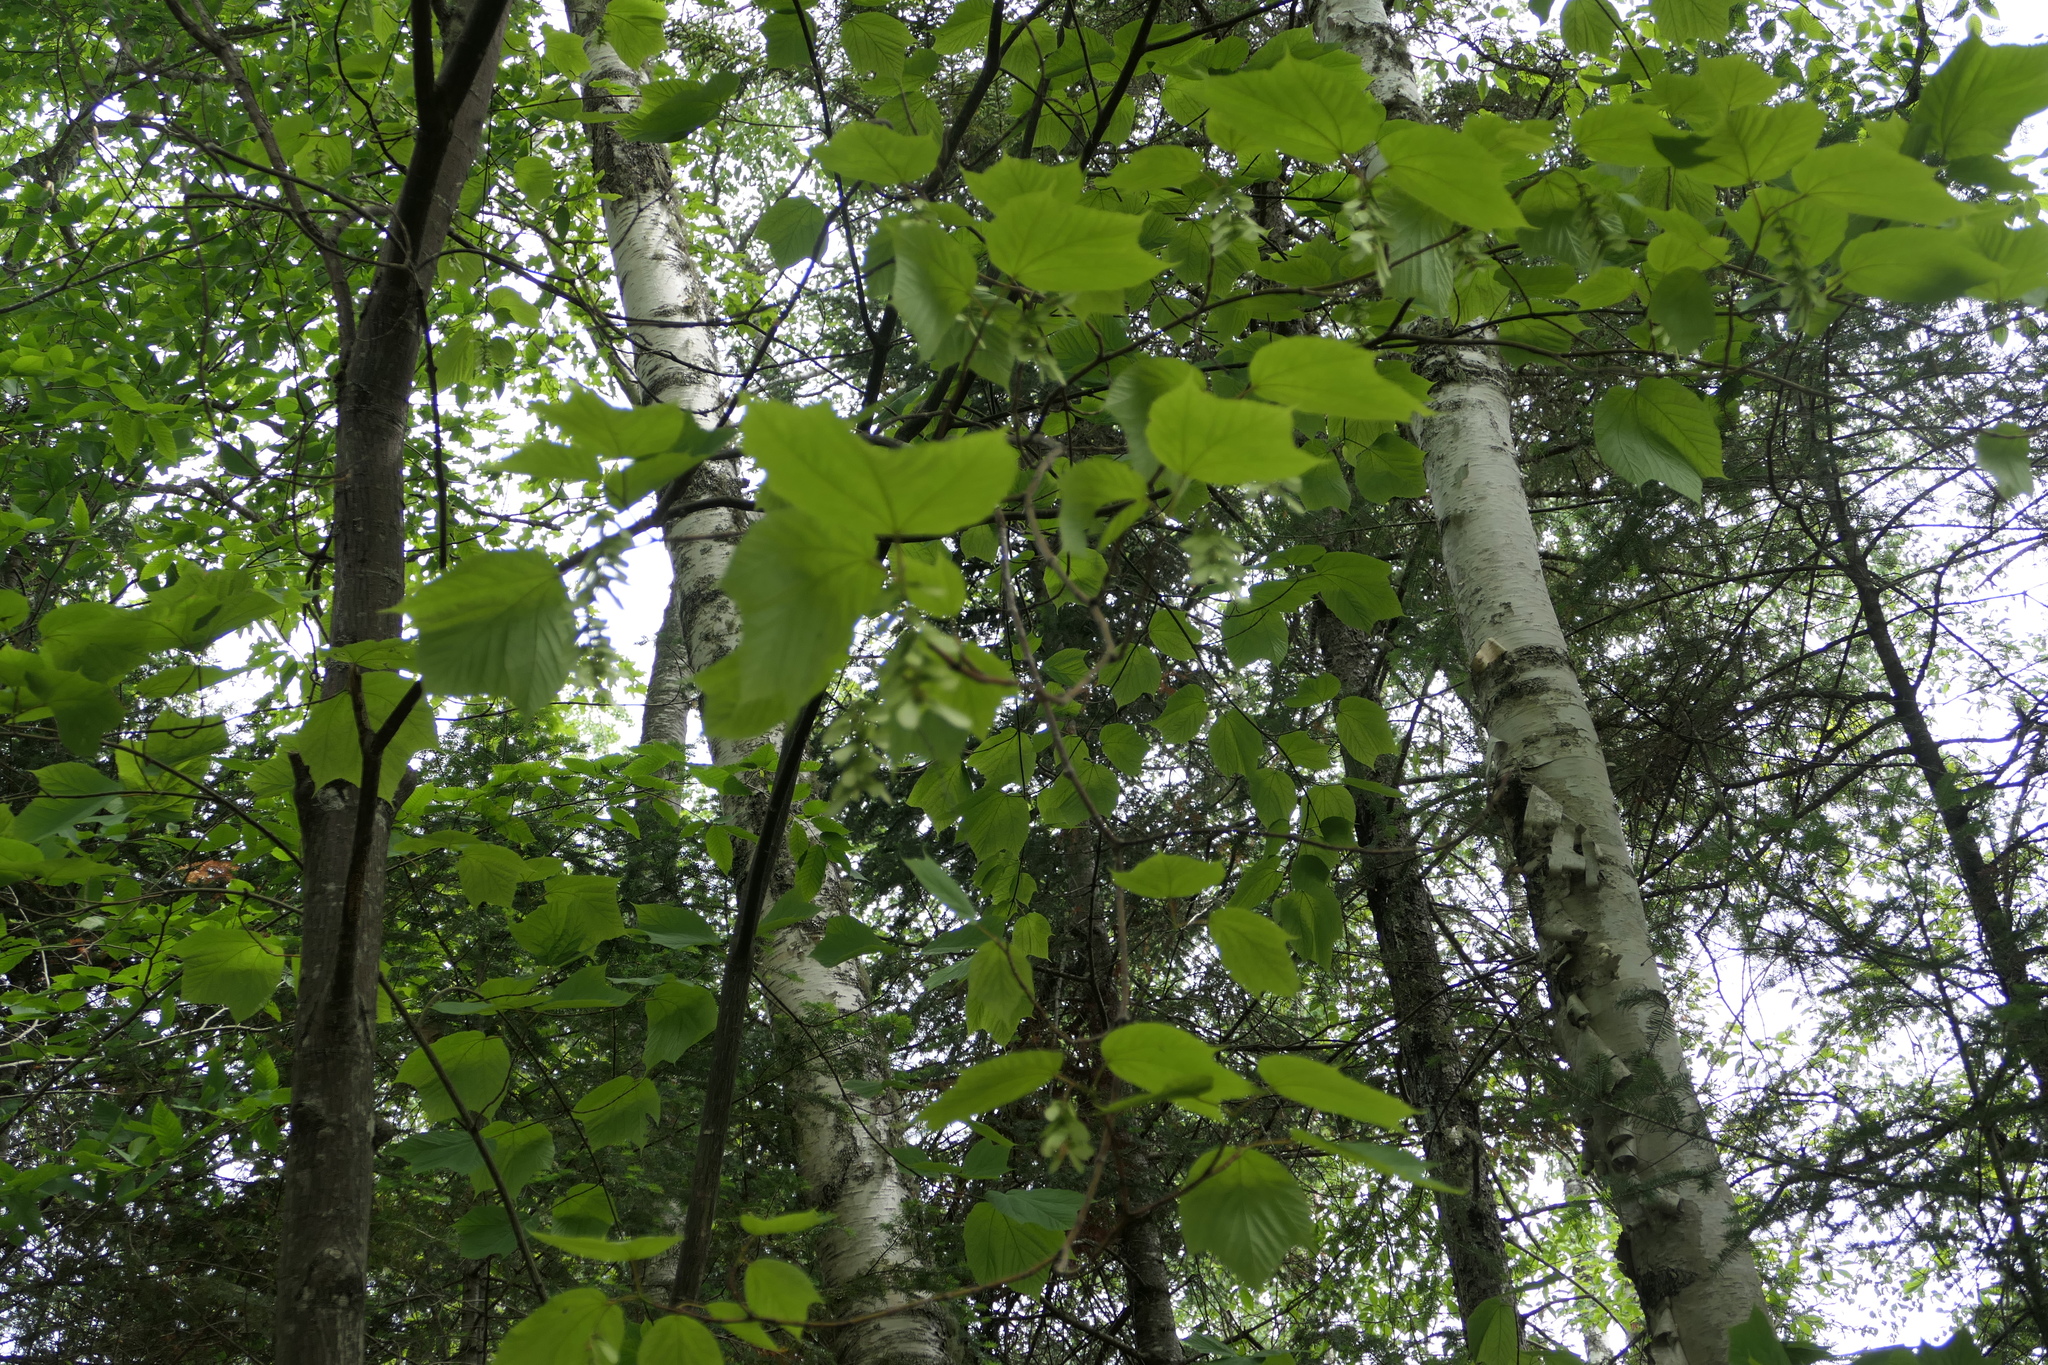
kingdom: Plantae
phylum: Tracheophyta
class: Magnoliopsida
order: Sapindales
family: Sapindaceae
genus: Acer
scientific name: Acer pensylvanicum
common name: Moosewood
